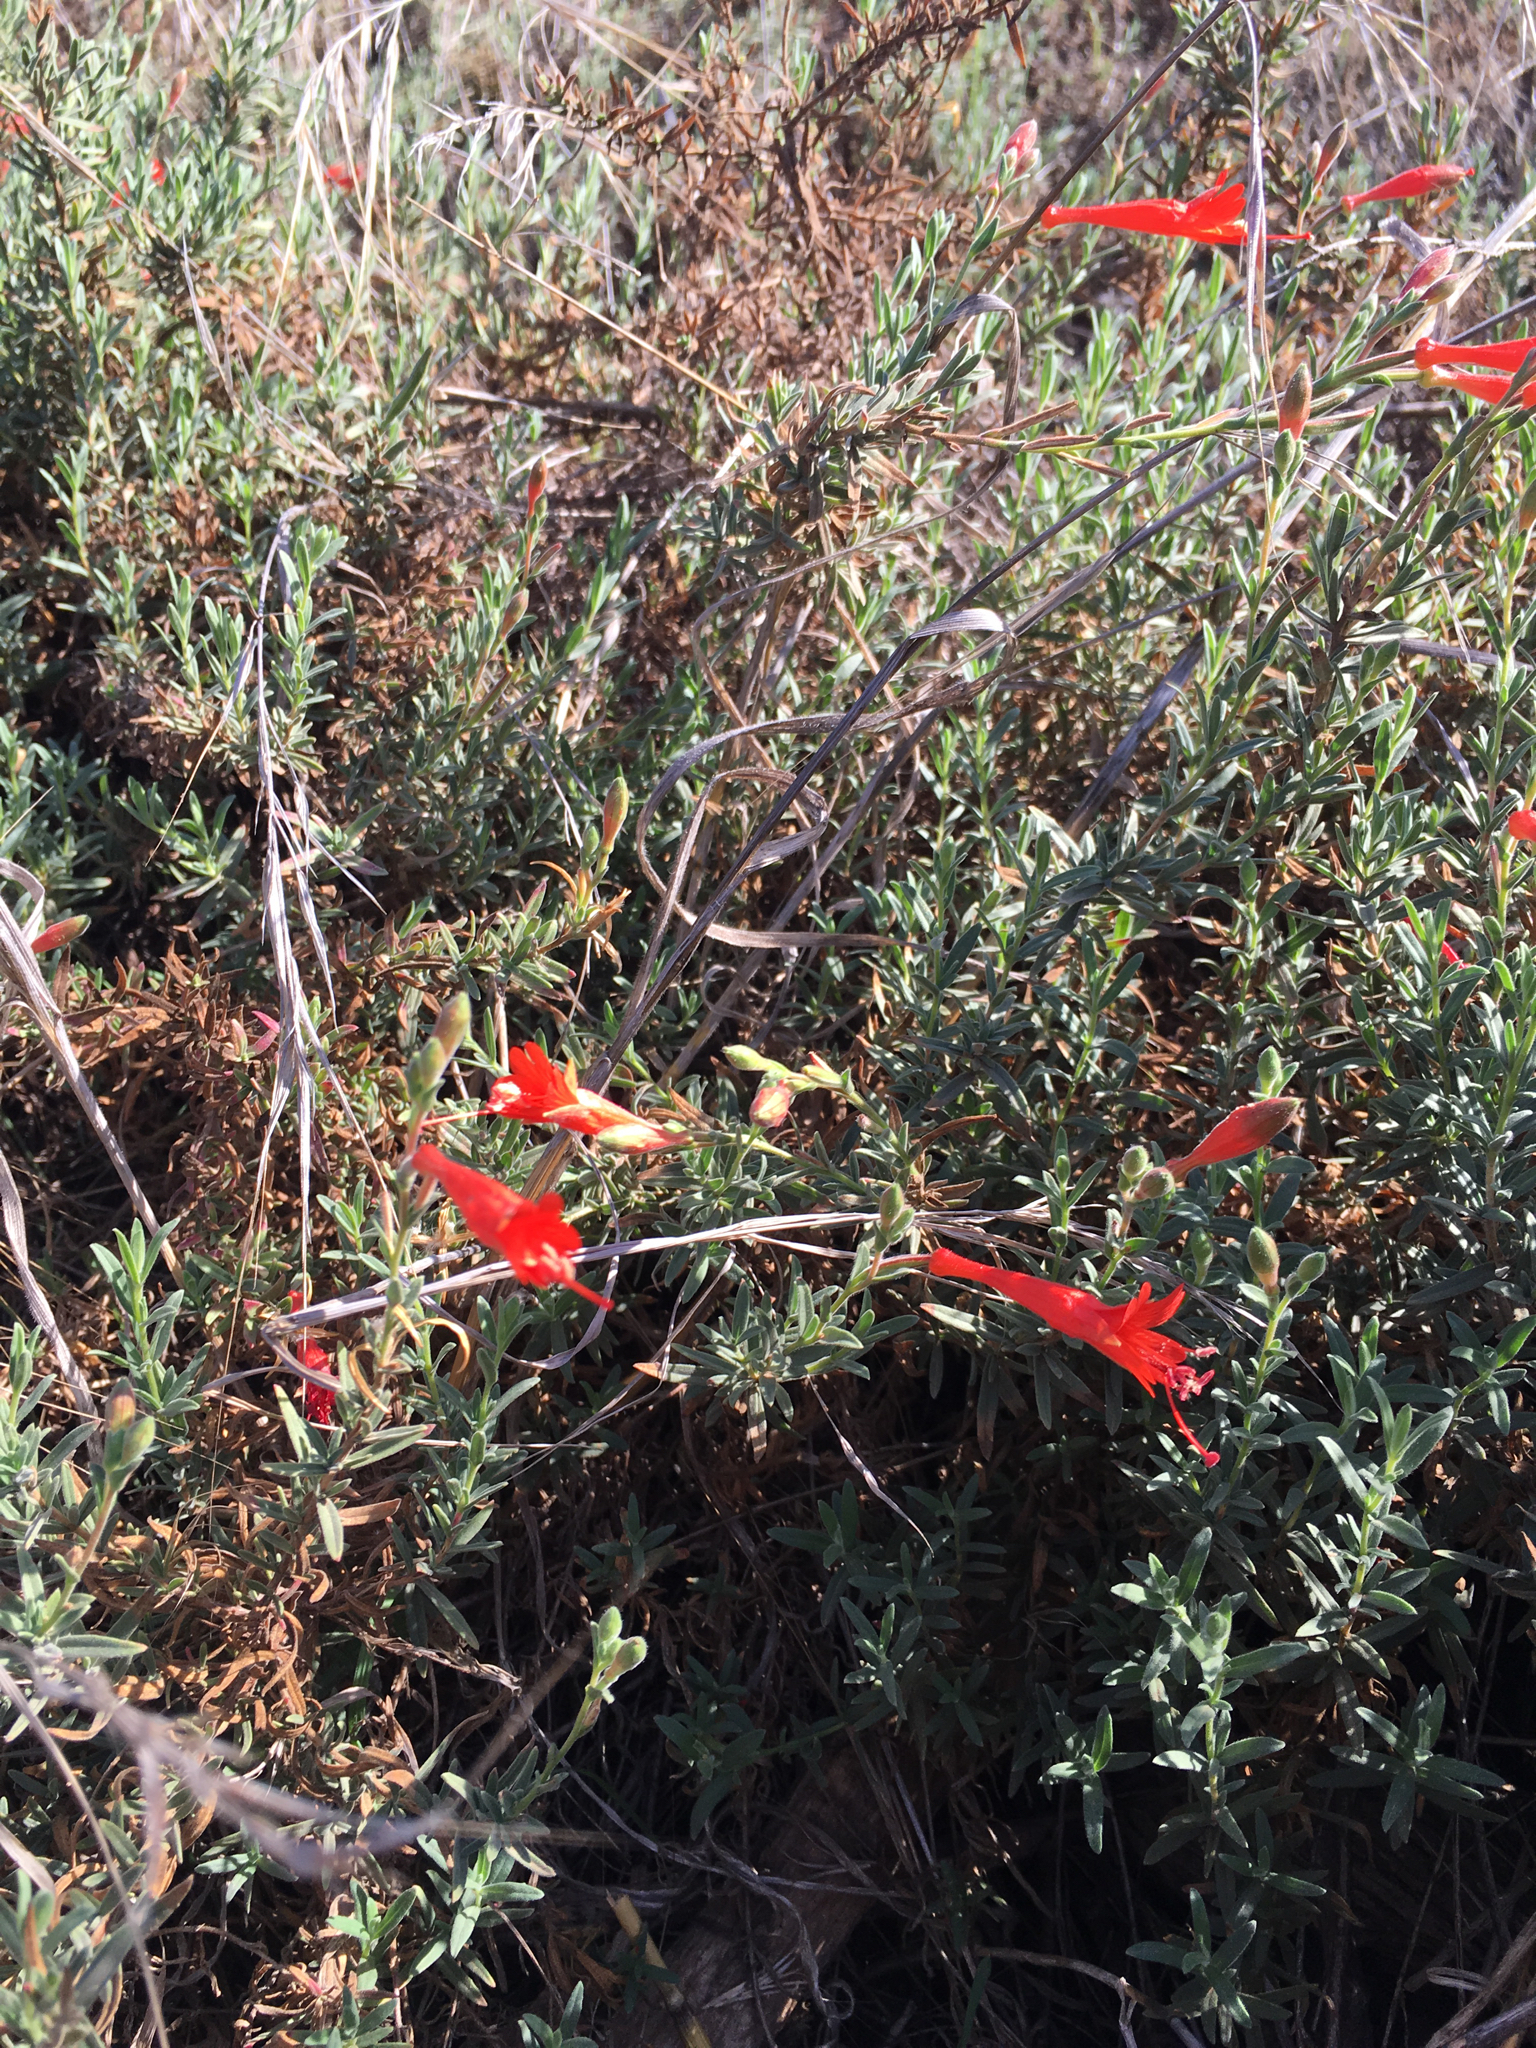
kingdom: Plantae
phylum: Tracheophyta
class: Magnoliopsida
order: Myrtales
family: Onagraceae
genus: Epilobium
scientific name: Epilobium canum
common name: California-fuchsia
